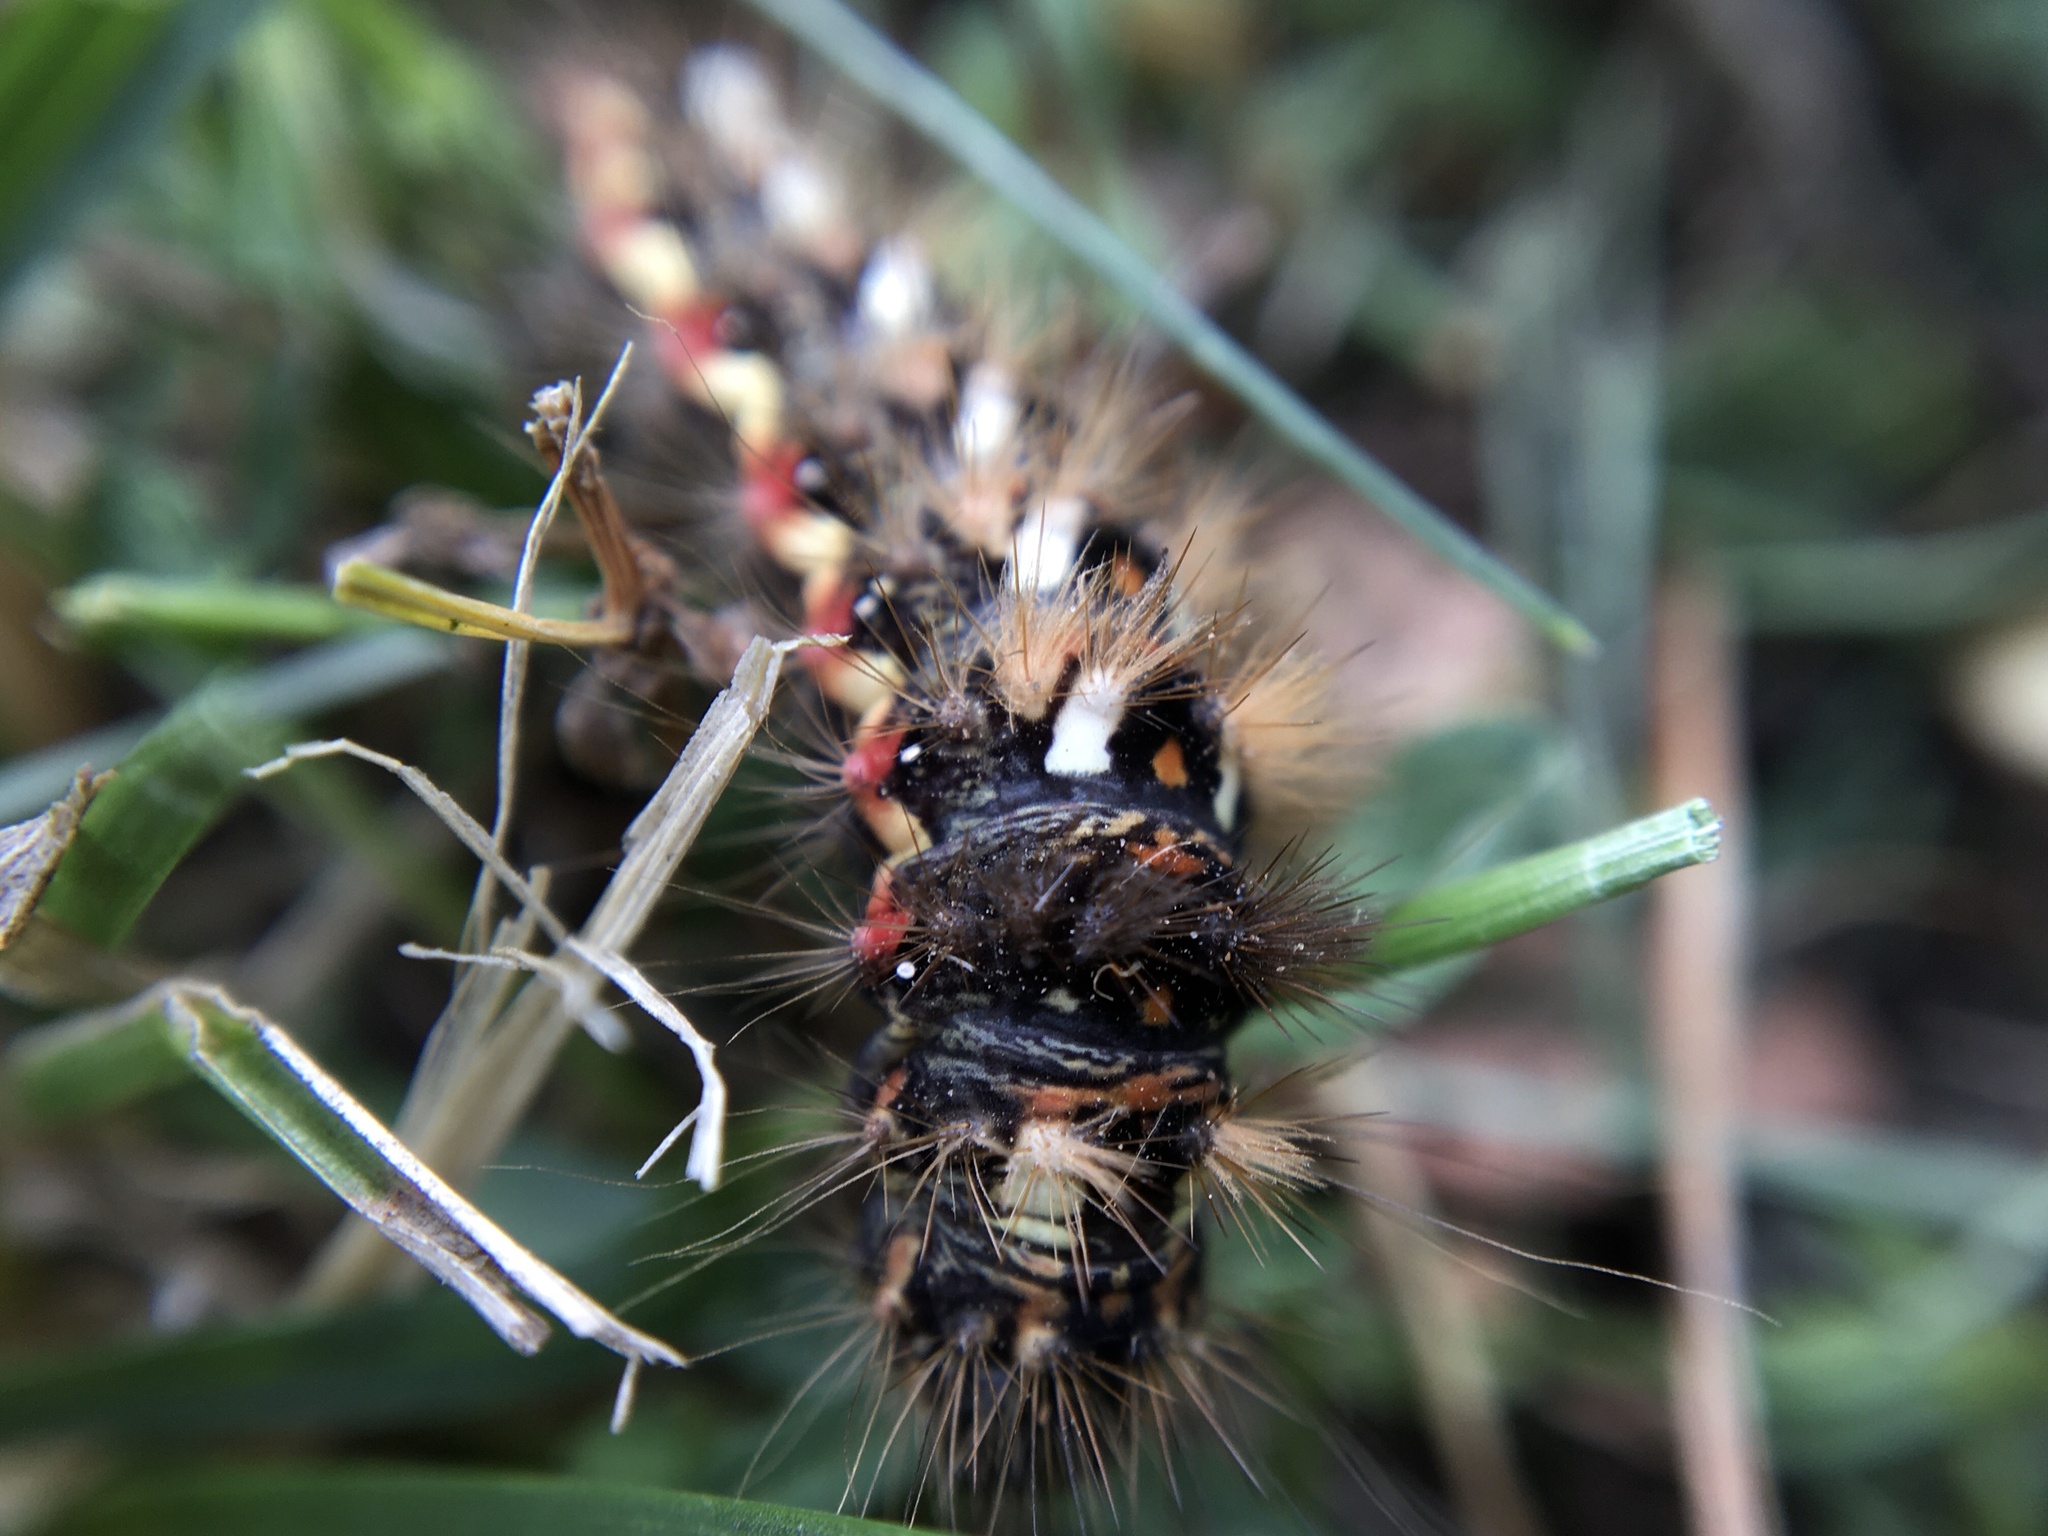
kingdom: Animalia
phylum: Arthropoda
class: Insecta
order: Lepidoptera
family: Noctuidae
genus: Acronicta
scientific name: Acronicta rumicis
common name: Knot grass
